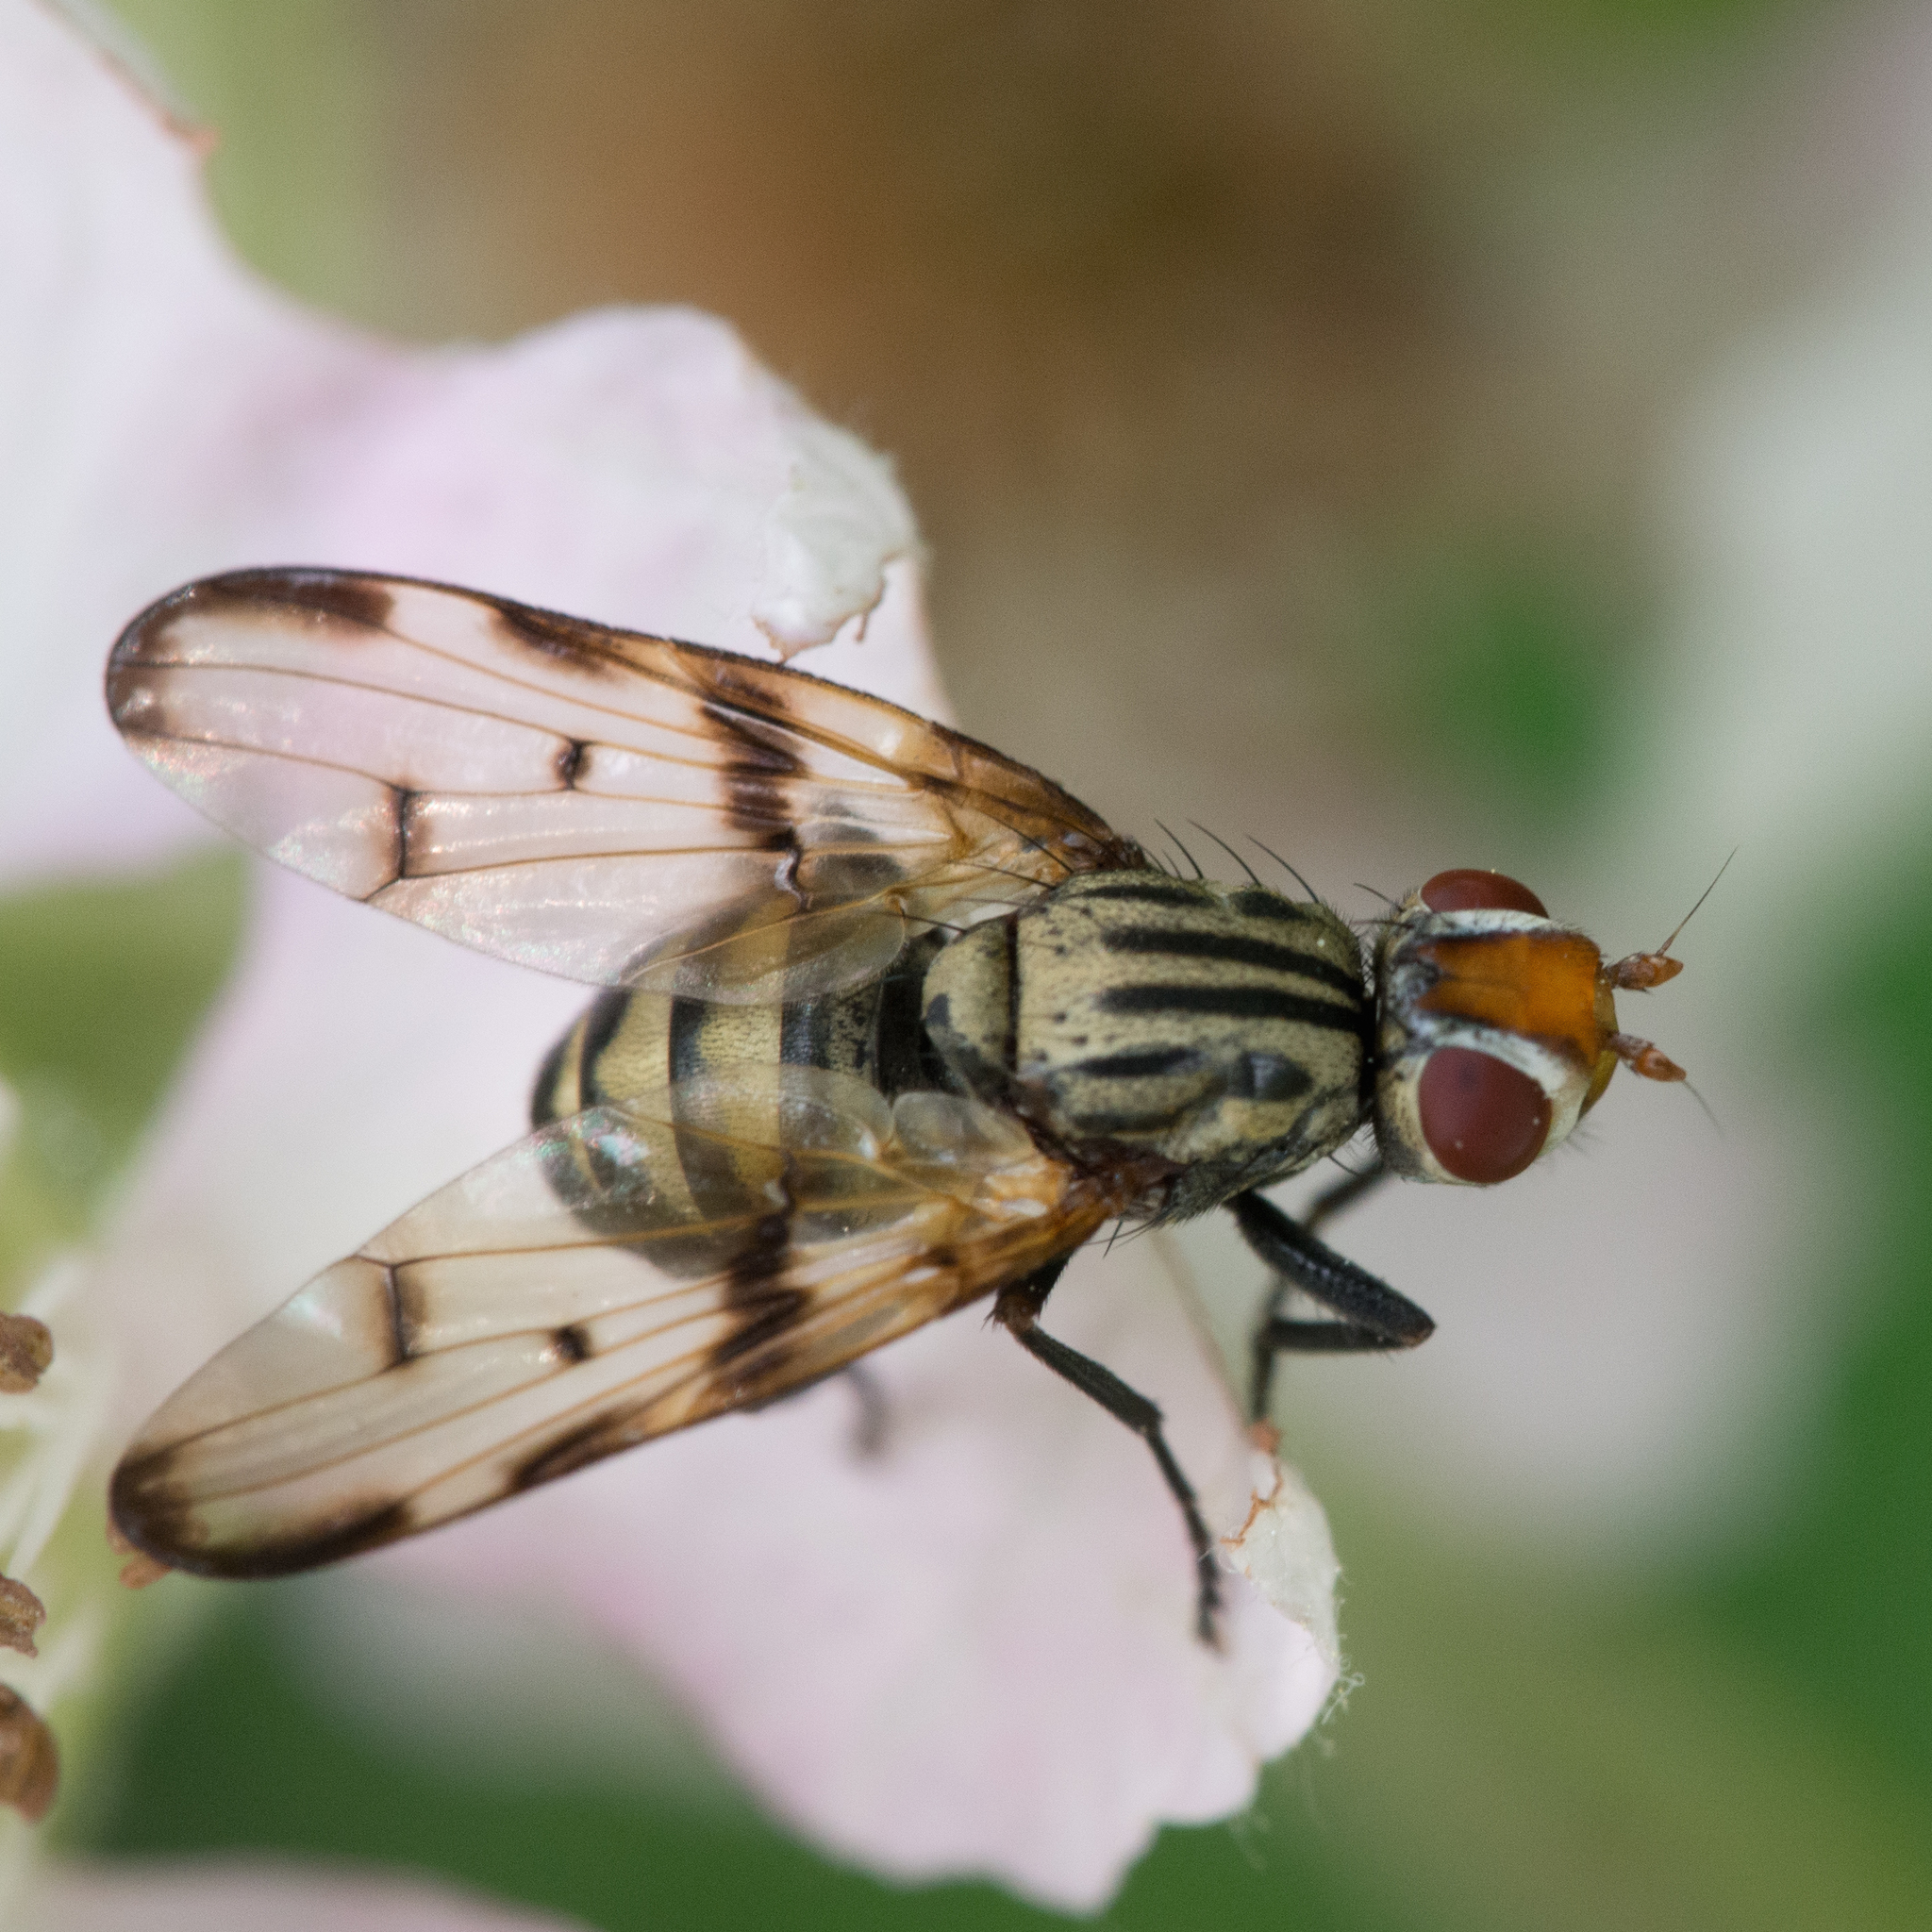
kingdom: Animalia
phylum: Arthropoda
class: Insecta
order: Diptera
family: Ulidiidae
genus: Otites
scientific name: Otites formosa
